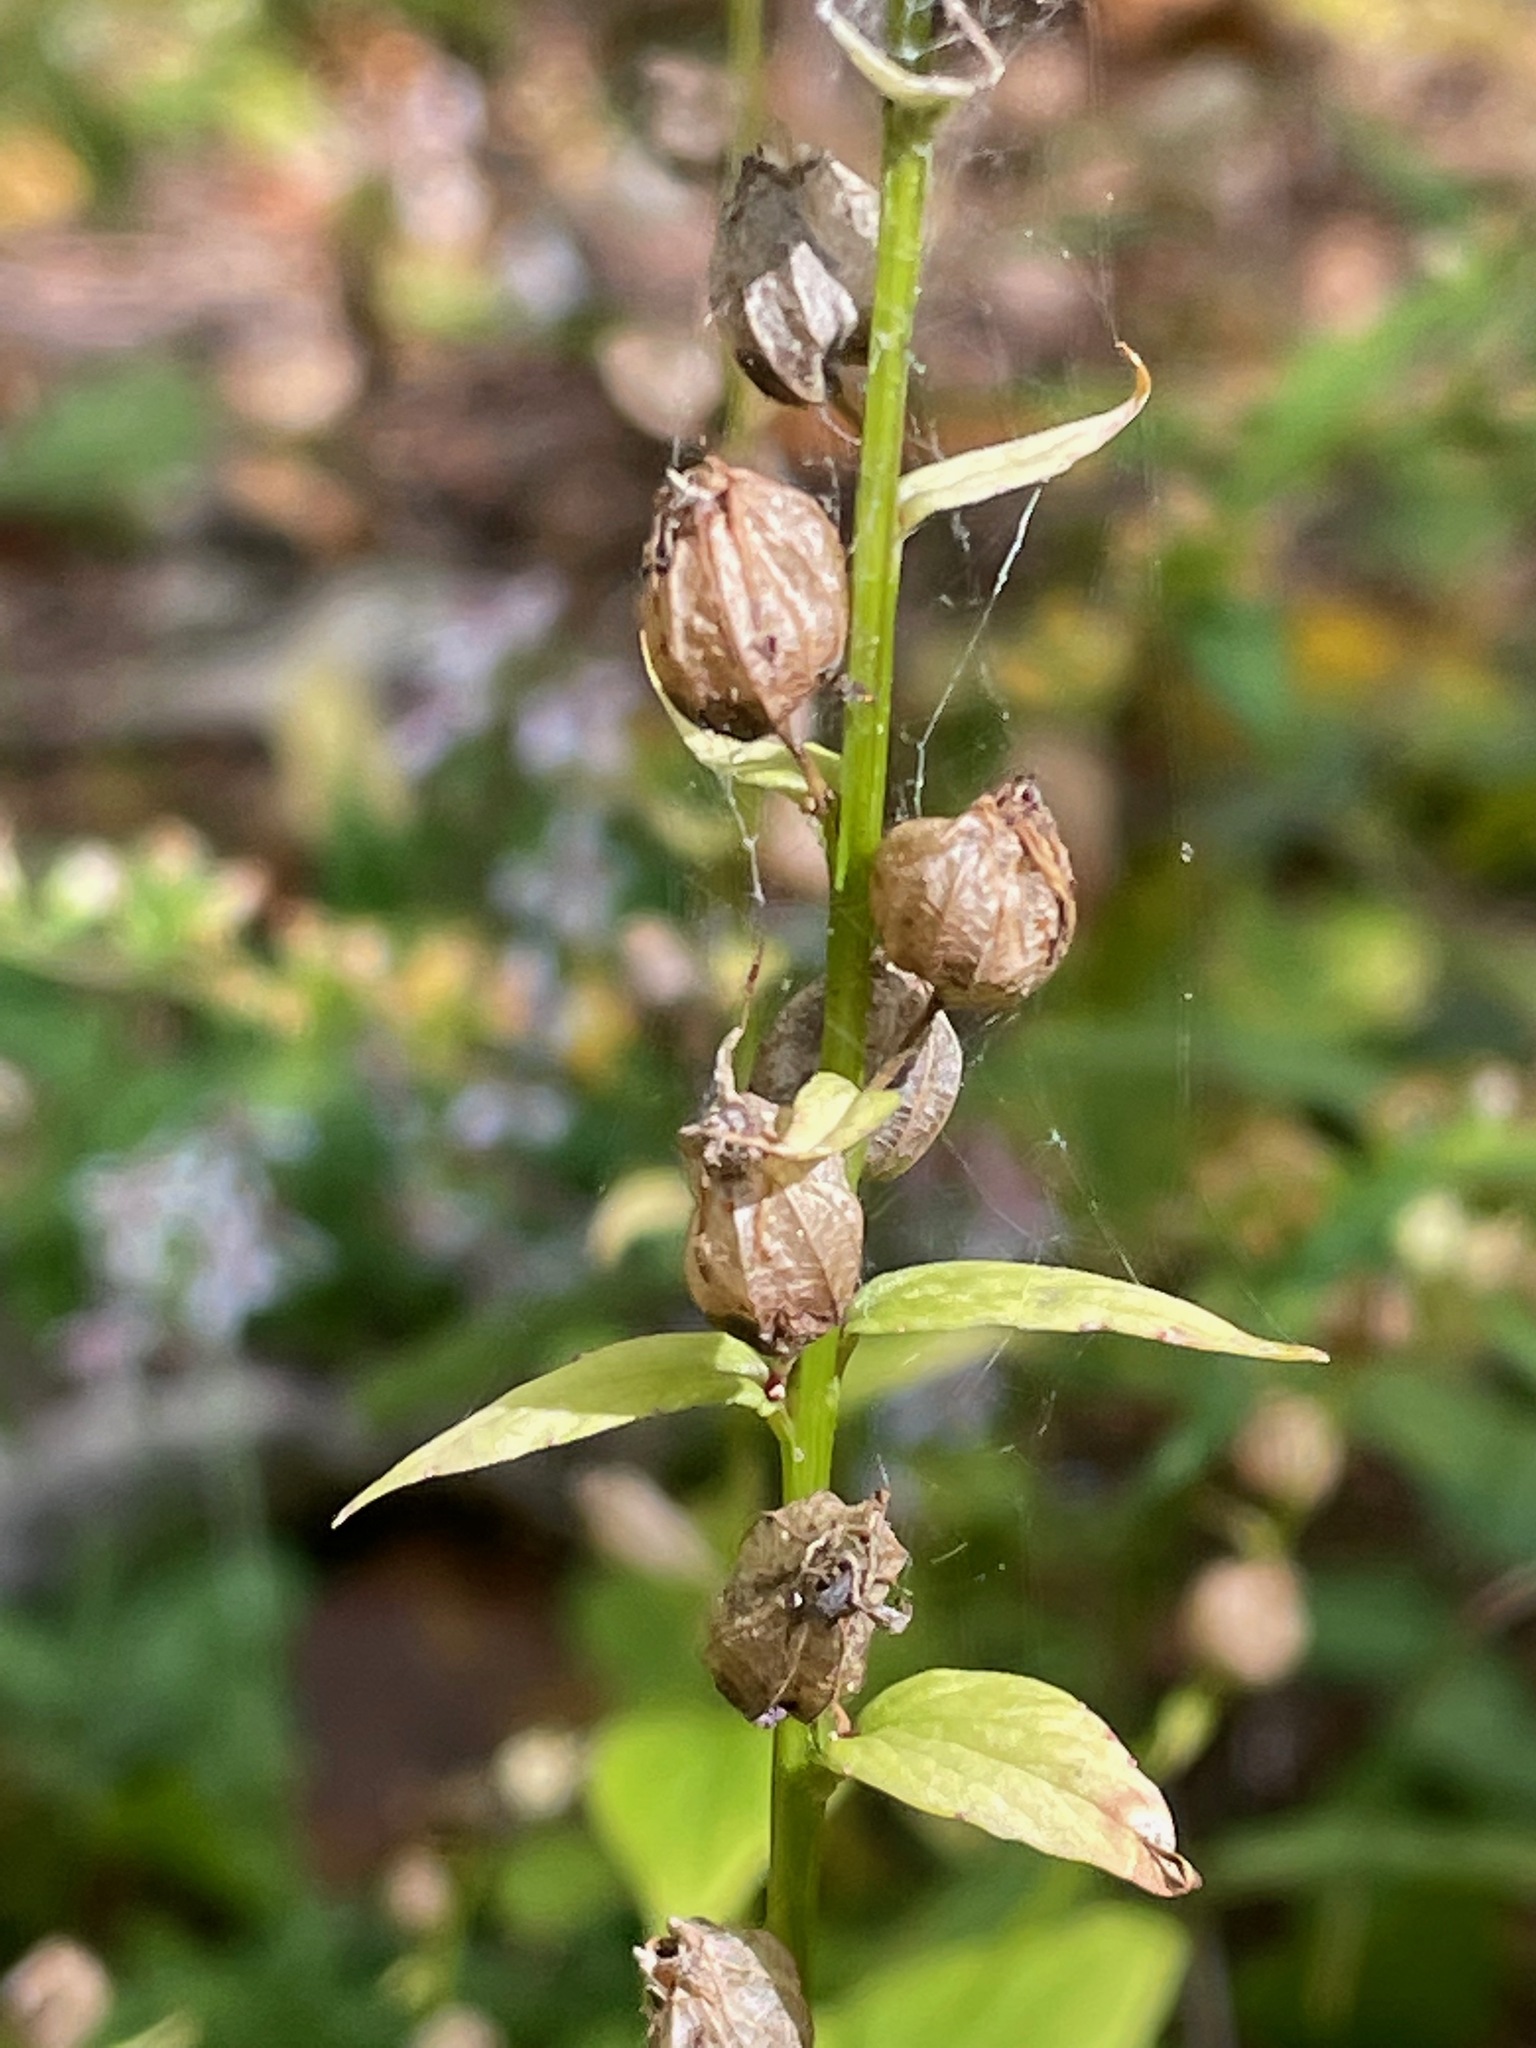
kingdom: Plantae
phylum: Tracheophyta
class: Magnoliopsida
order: Asterales
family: Campanulaceae
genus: Lobelia
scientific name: Lobelia inflata
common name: Indian tobacco
